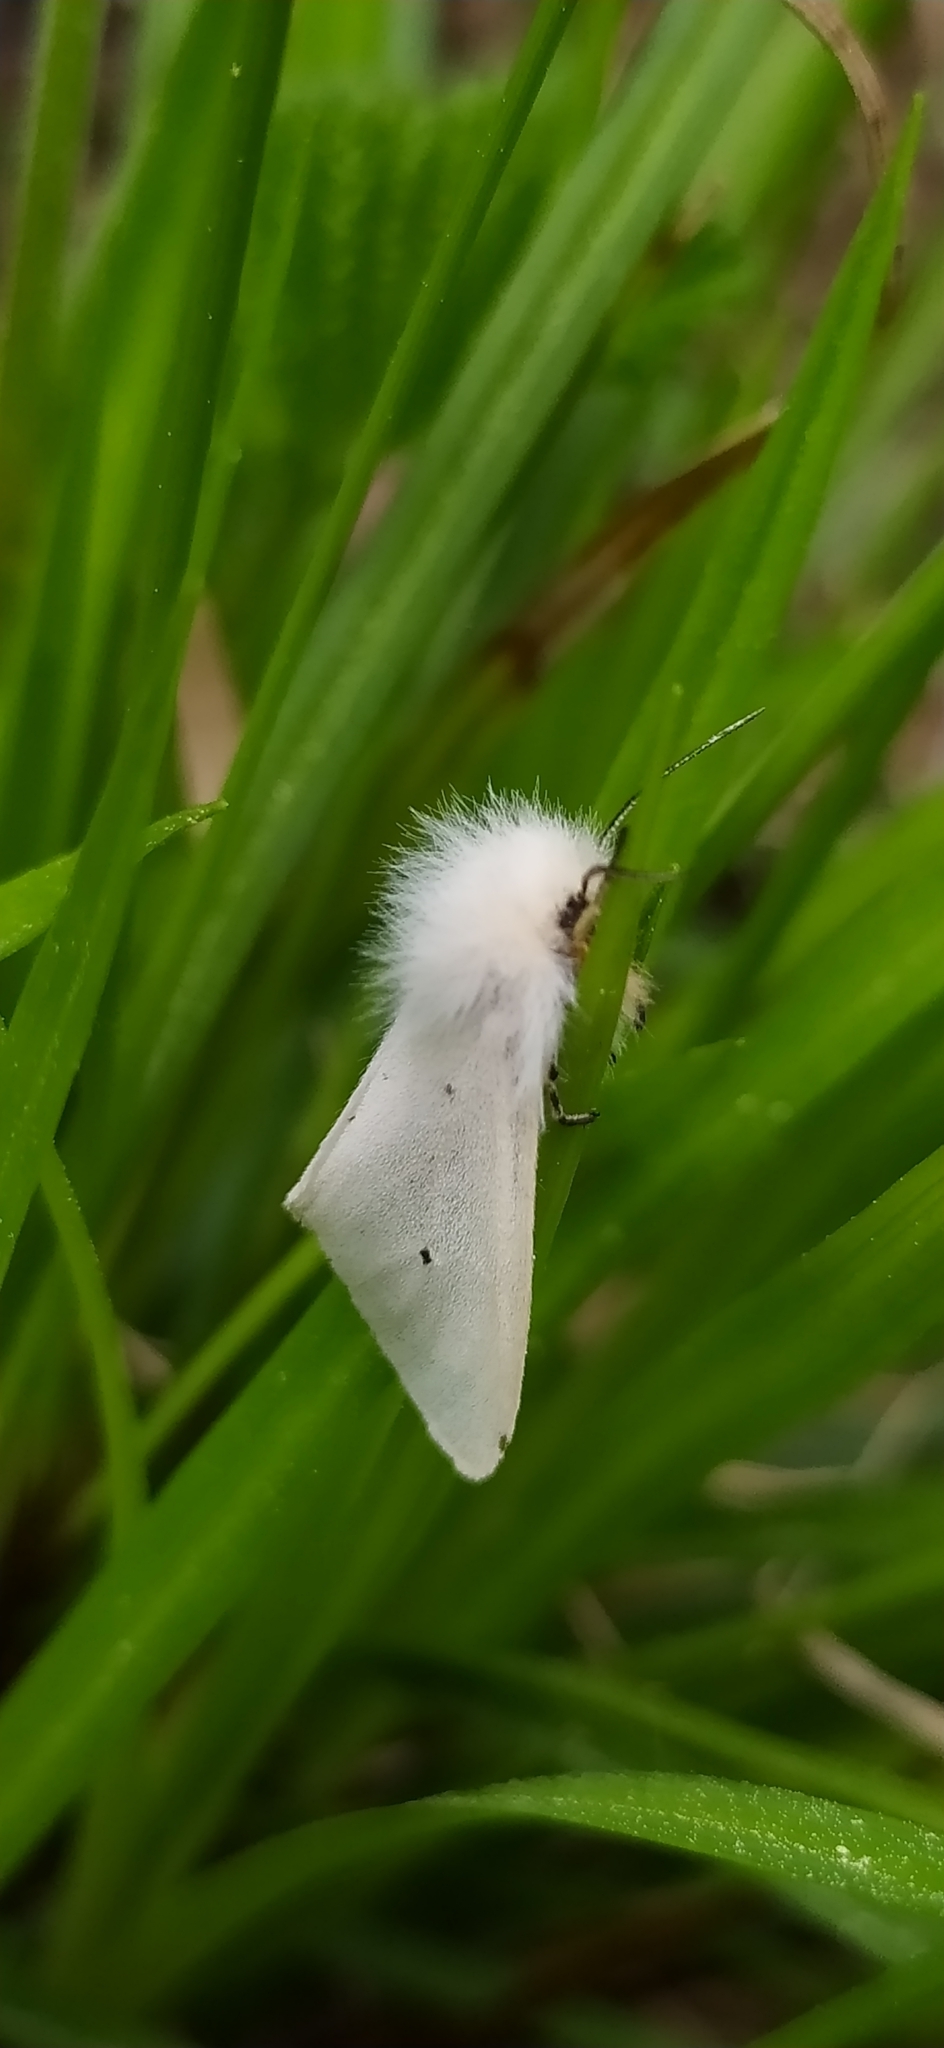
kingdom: Animalia
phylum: Arthropoda
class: Insecta
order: Lepidoptera
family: Erebidae
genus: Diaphora
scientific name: Diaphora mendica
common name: Muslin moth
